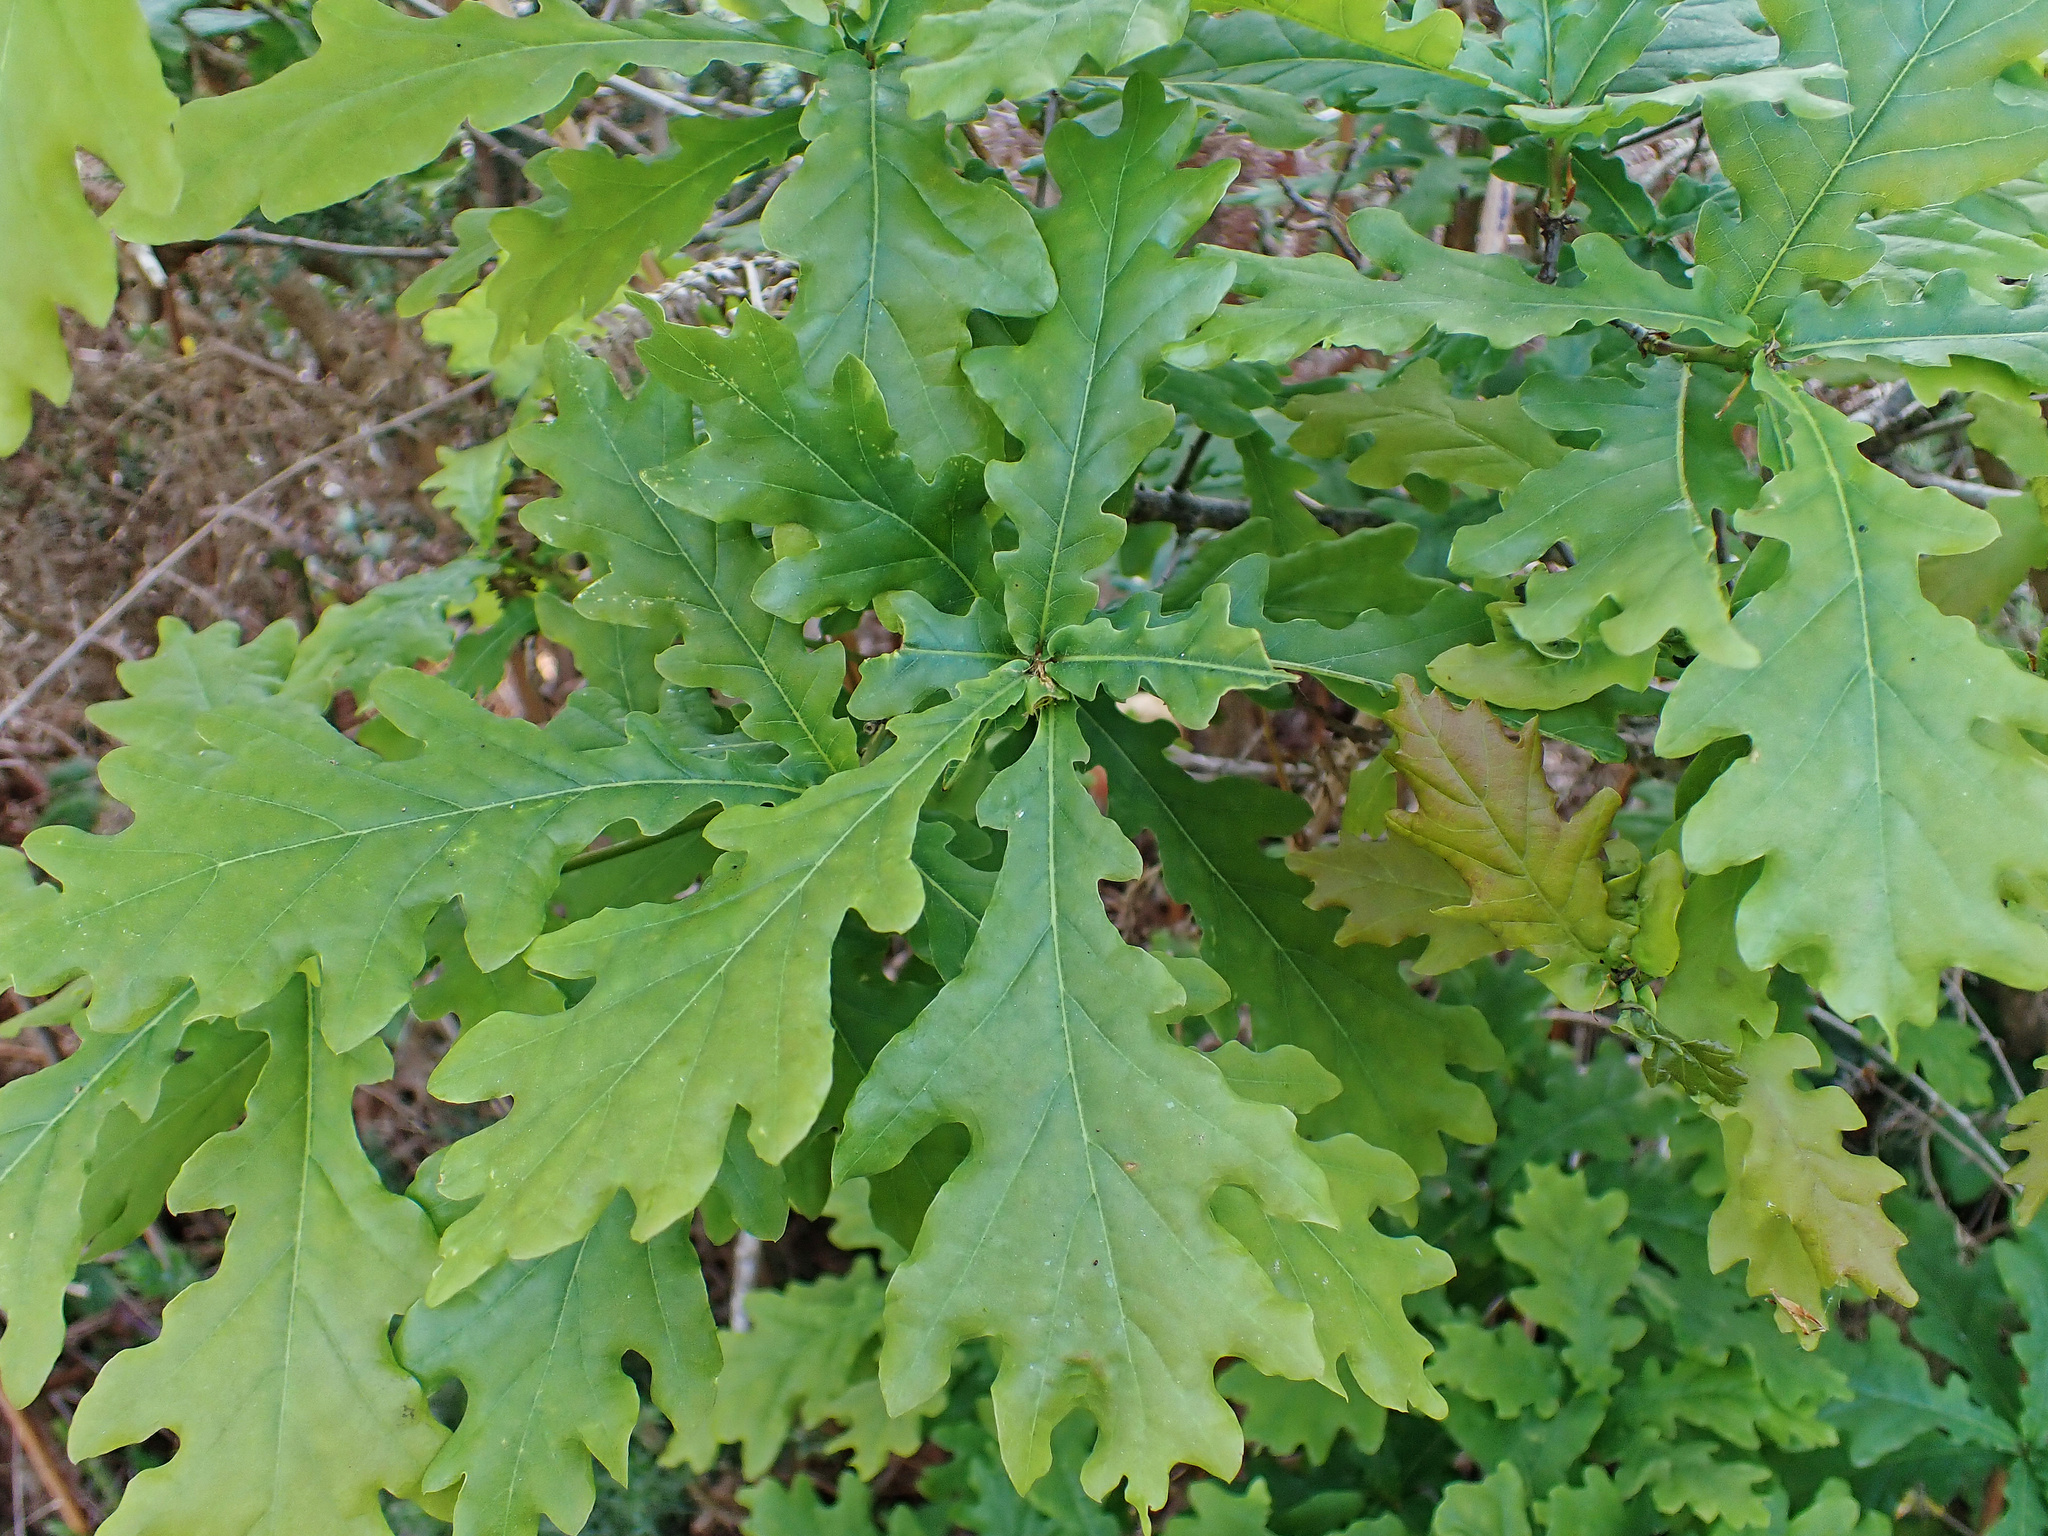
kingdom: Plantae
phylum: Tracheophyta
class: Magnoliopsida
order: Fagales
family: Fagaceae
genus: Quercus
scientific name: Quercus robur
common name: Pedunculate oak
